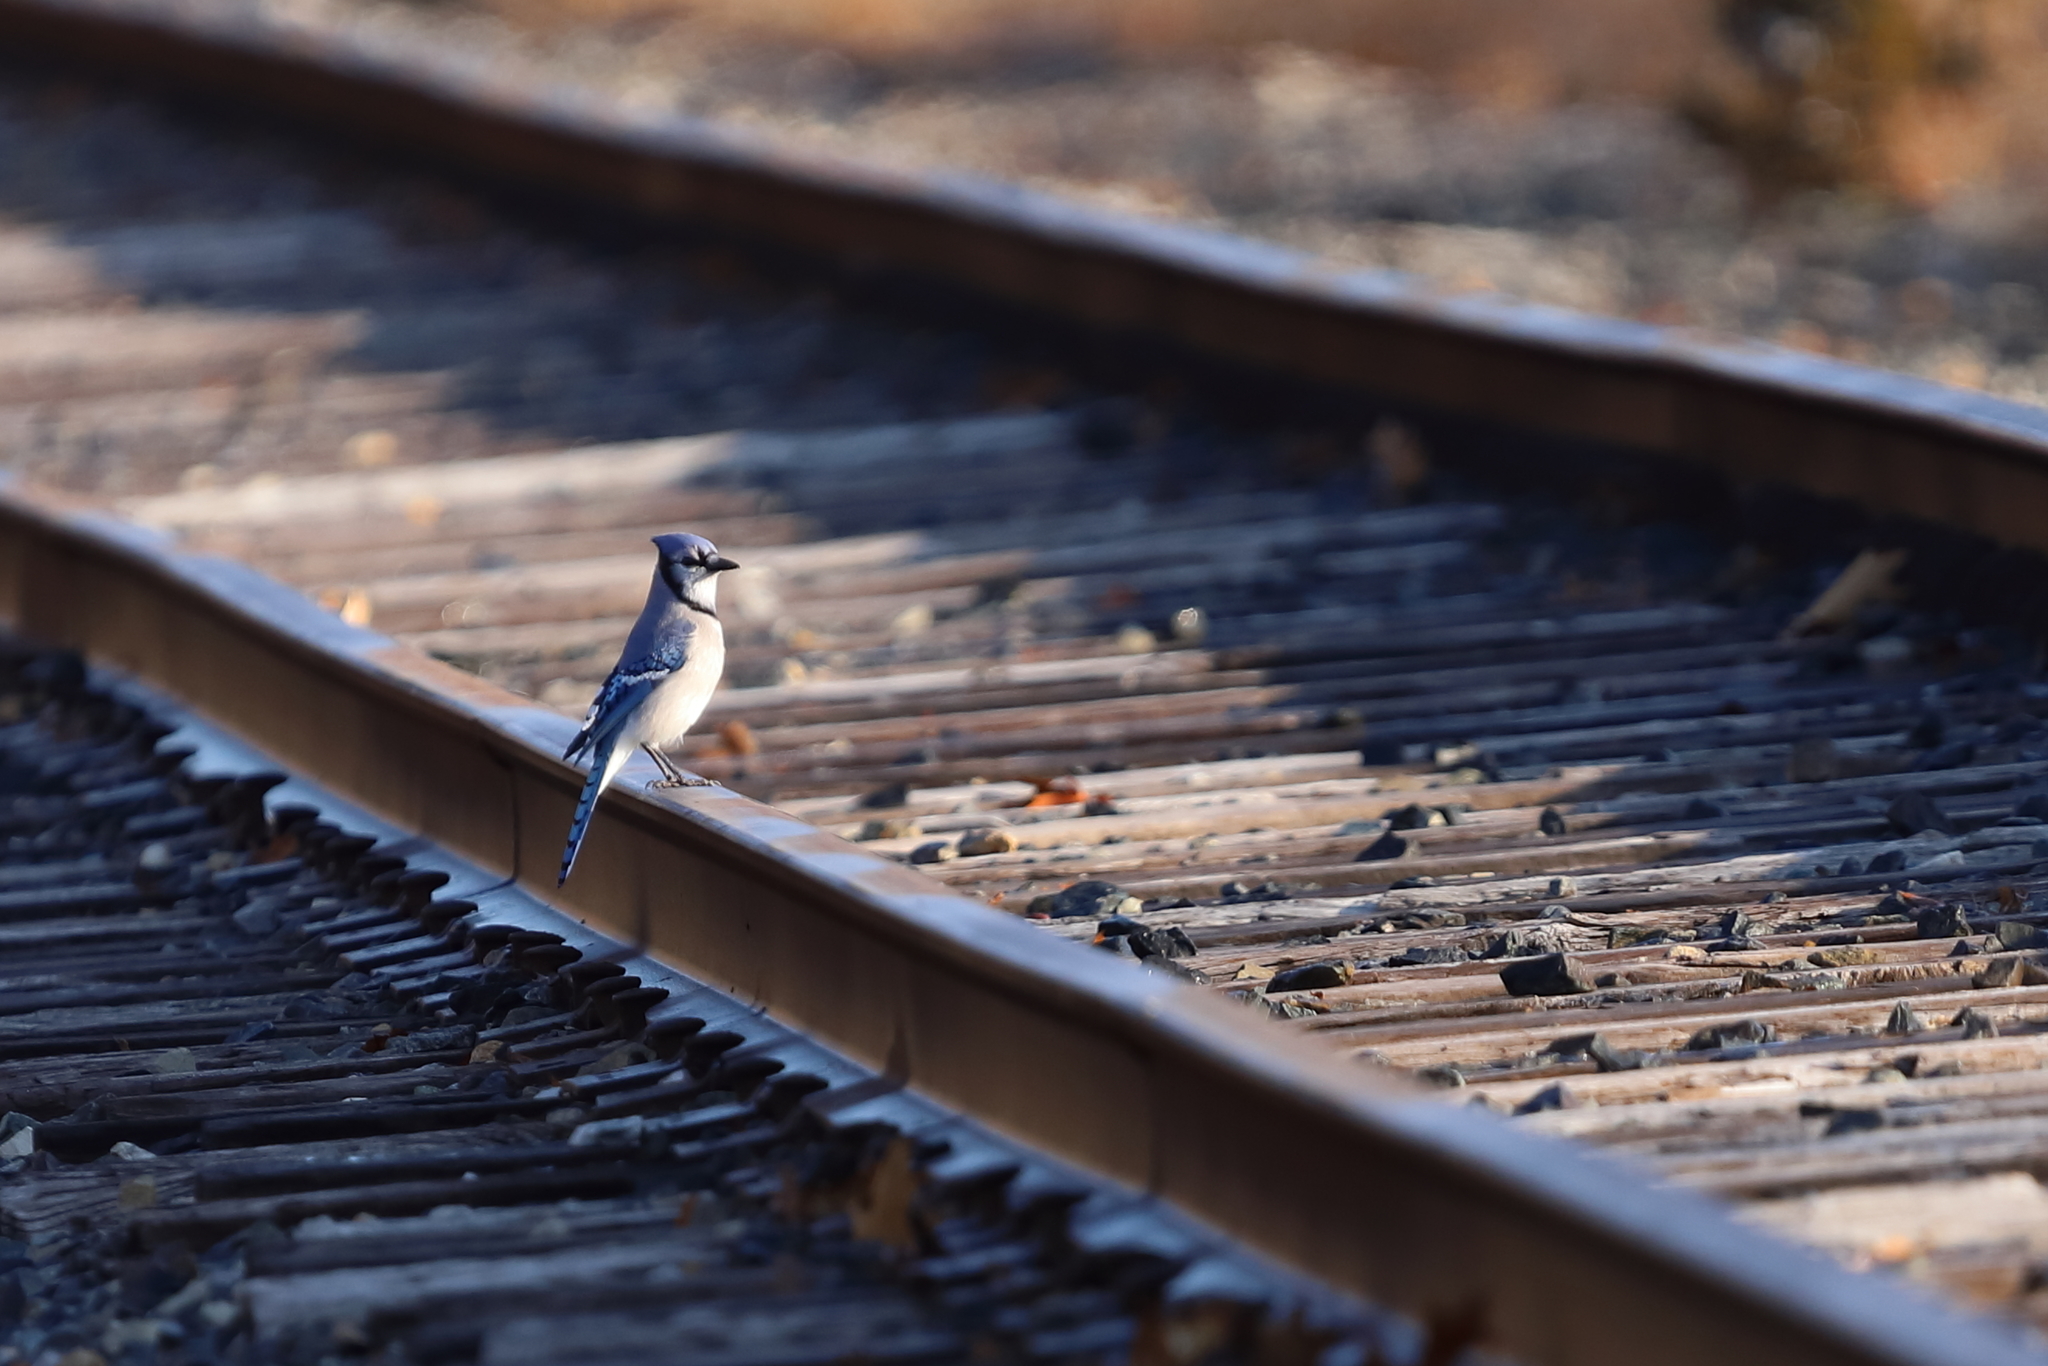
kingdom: Animalia
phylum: Chordata
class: Aves
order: Passeriformes
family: Corvidae
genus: Cyanocitta
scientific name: Cyanocitta cristata
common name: Blue jay
